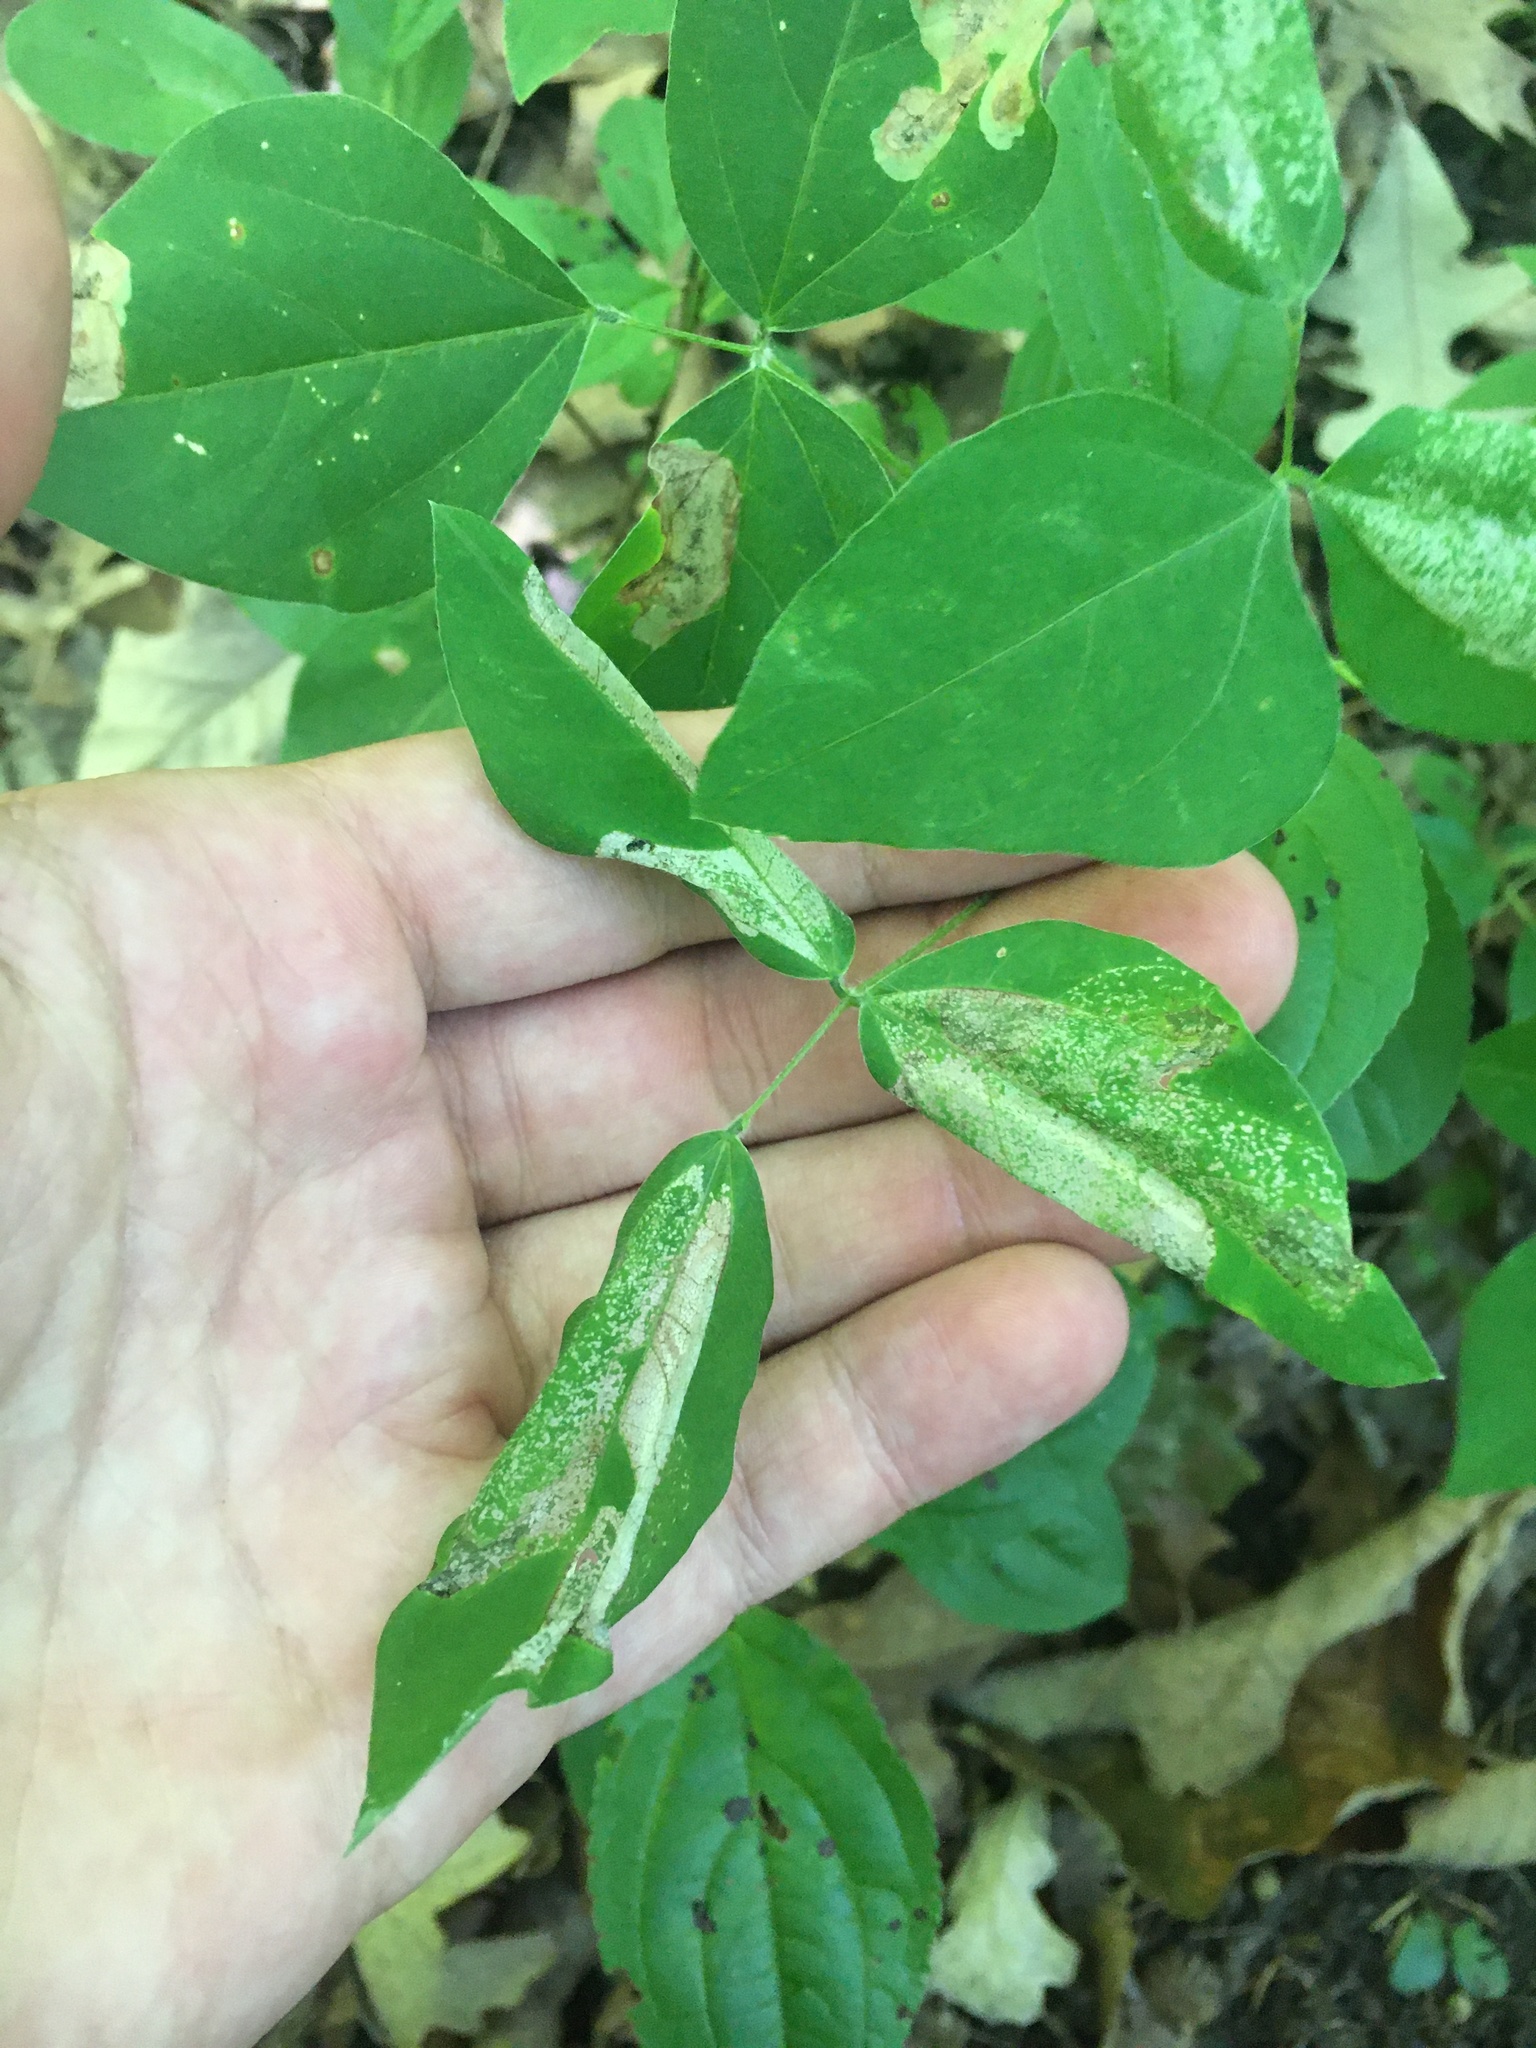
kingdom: Animalia
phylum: Arthropoda
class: Insecta
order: Lepidoptera
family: Gracillariidae
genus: Macrosaccus
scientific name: Macrosaccus morrisella
